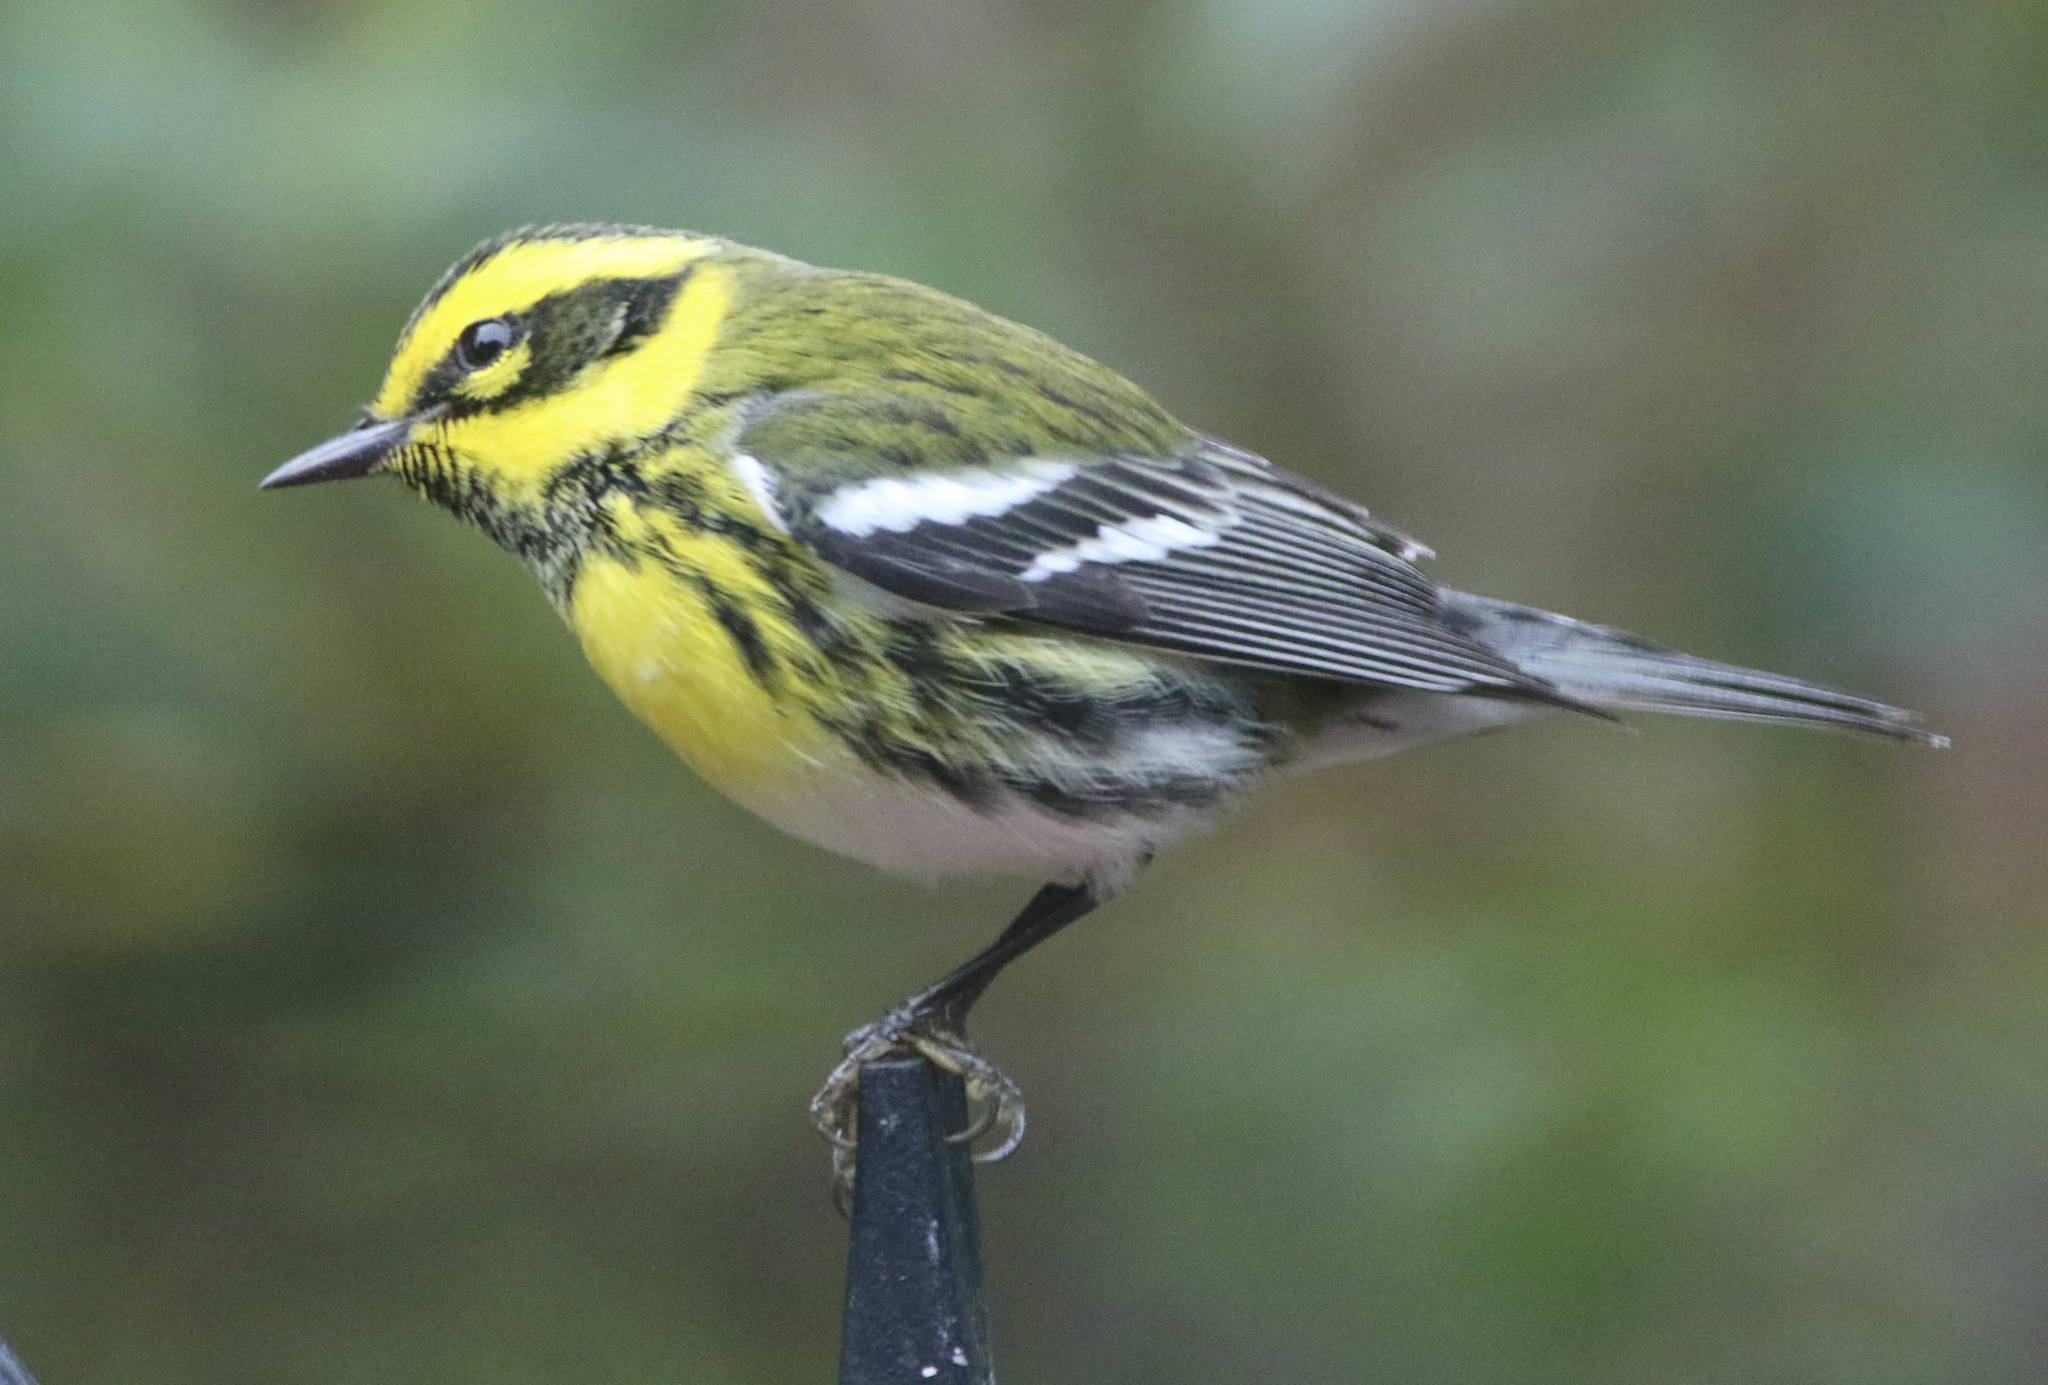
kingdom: Animalia
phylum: Chordata
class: Aves
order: Passeriformes
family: Parulidae
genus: Setophaga
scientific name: Setophaga townsendi
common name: Townsend's warbler
